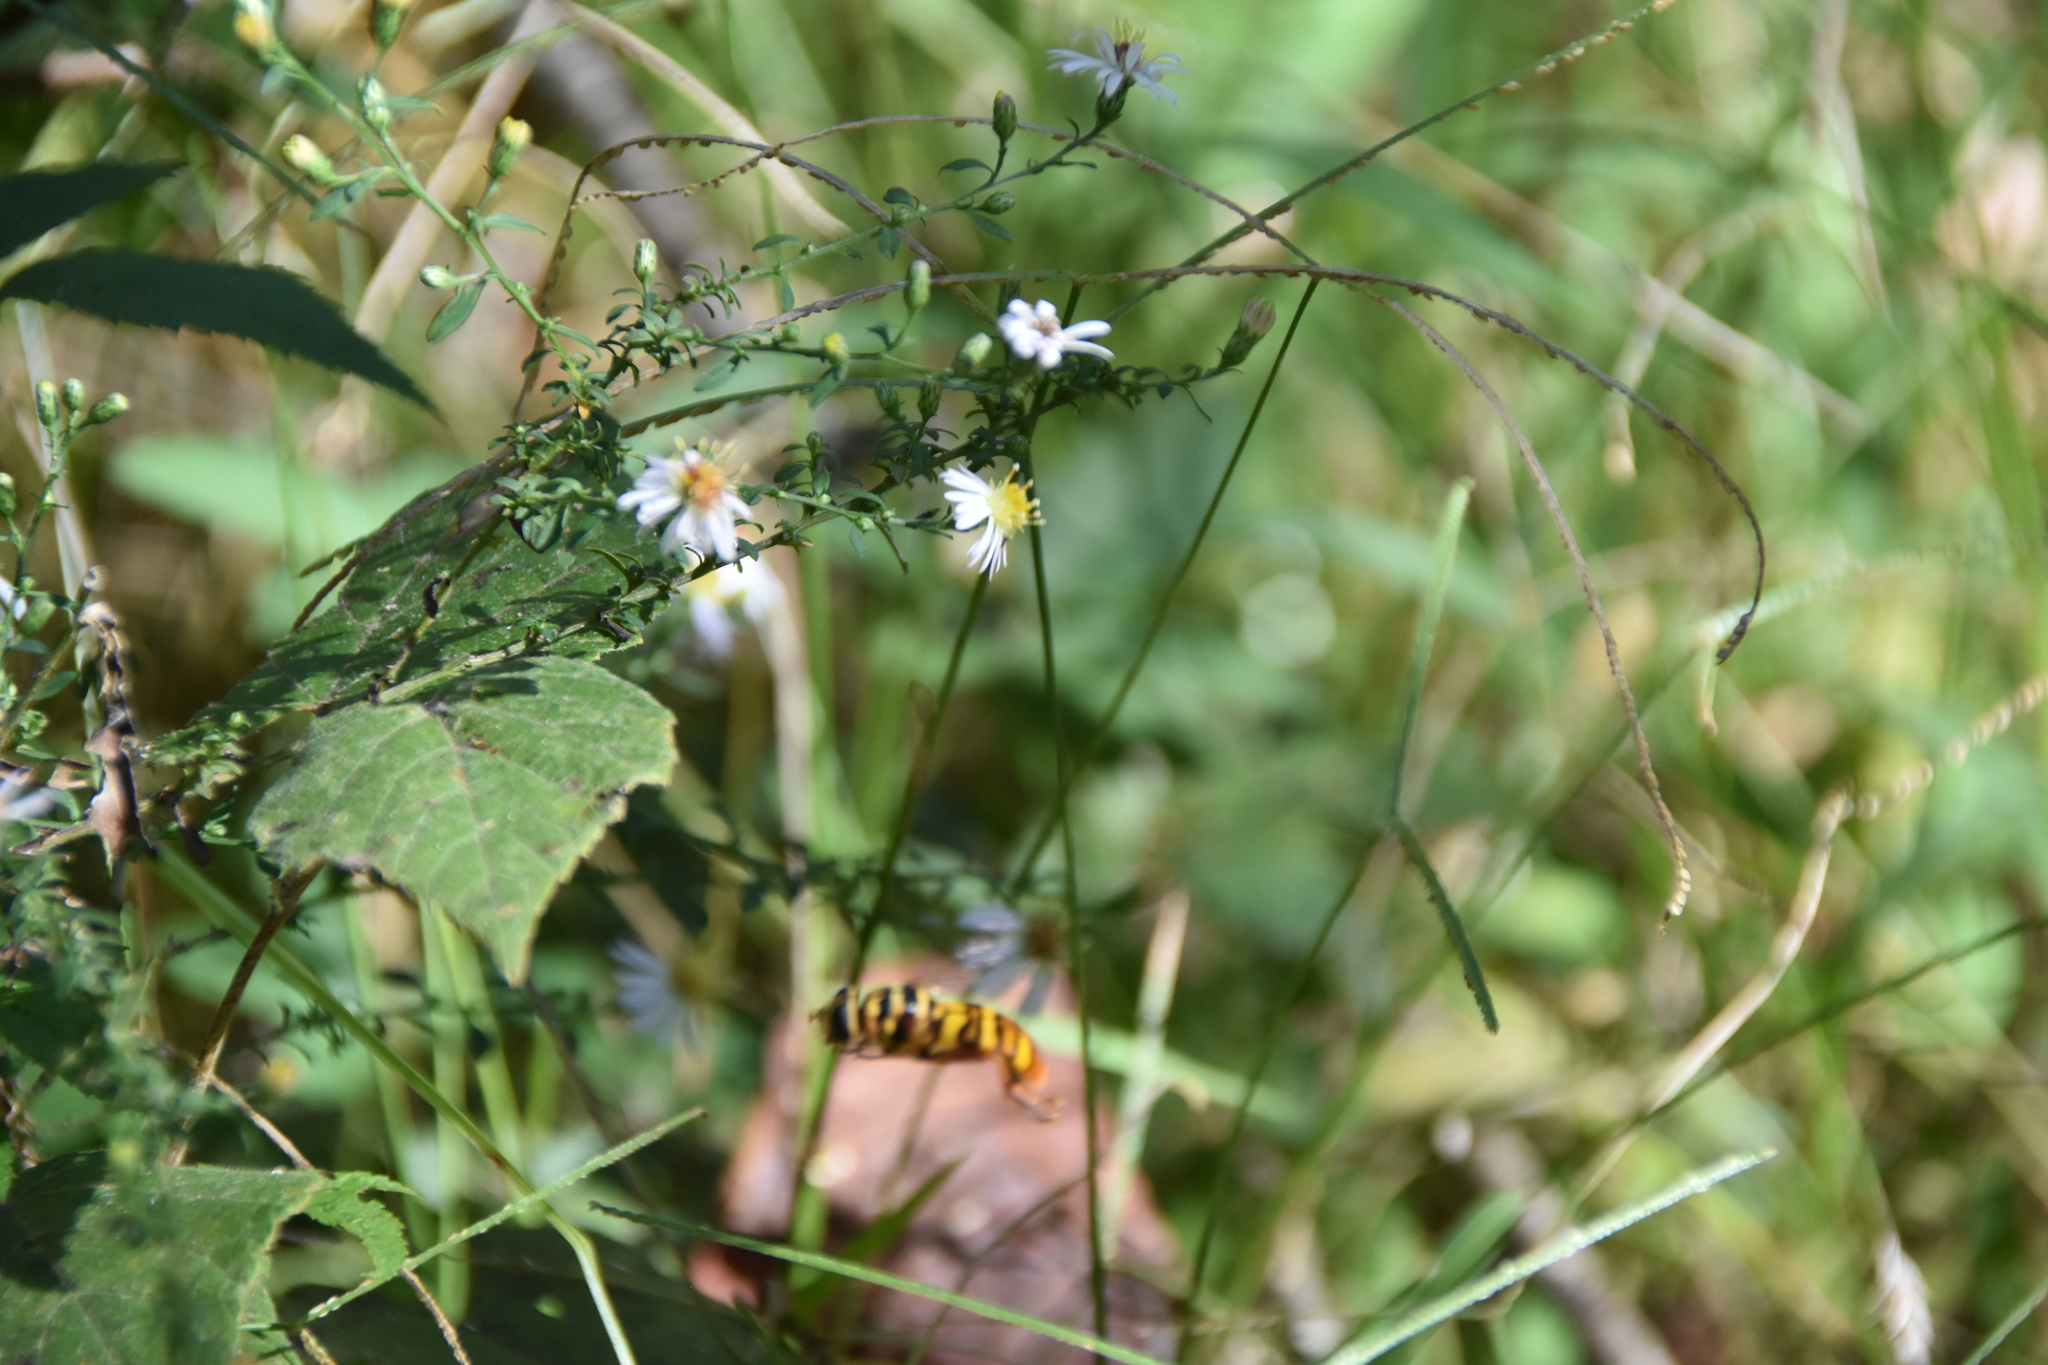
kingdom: Animalia
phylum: Arthropoda
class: Insecta
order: Diptera
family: Syrphidae
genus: Milesia
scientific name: Milesia virginiensis
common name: Virginia giant
